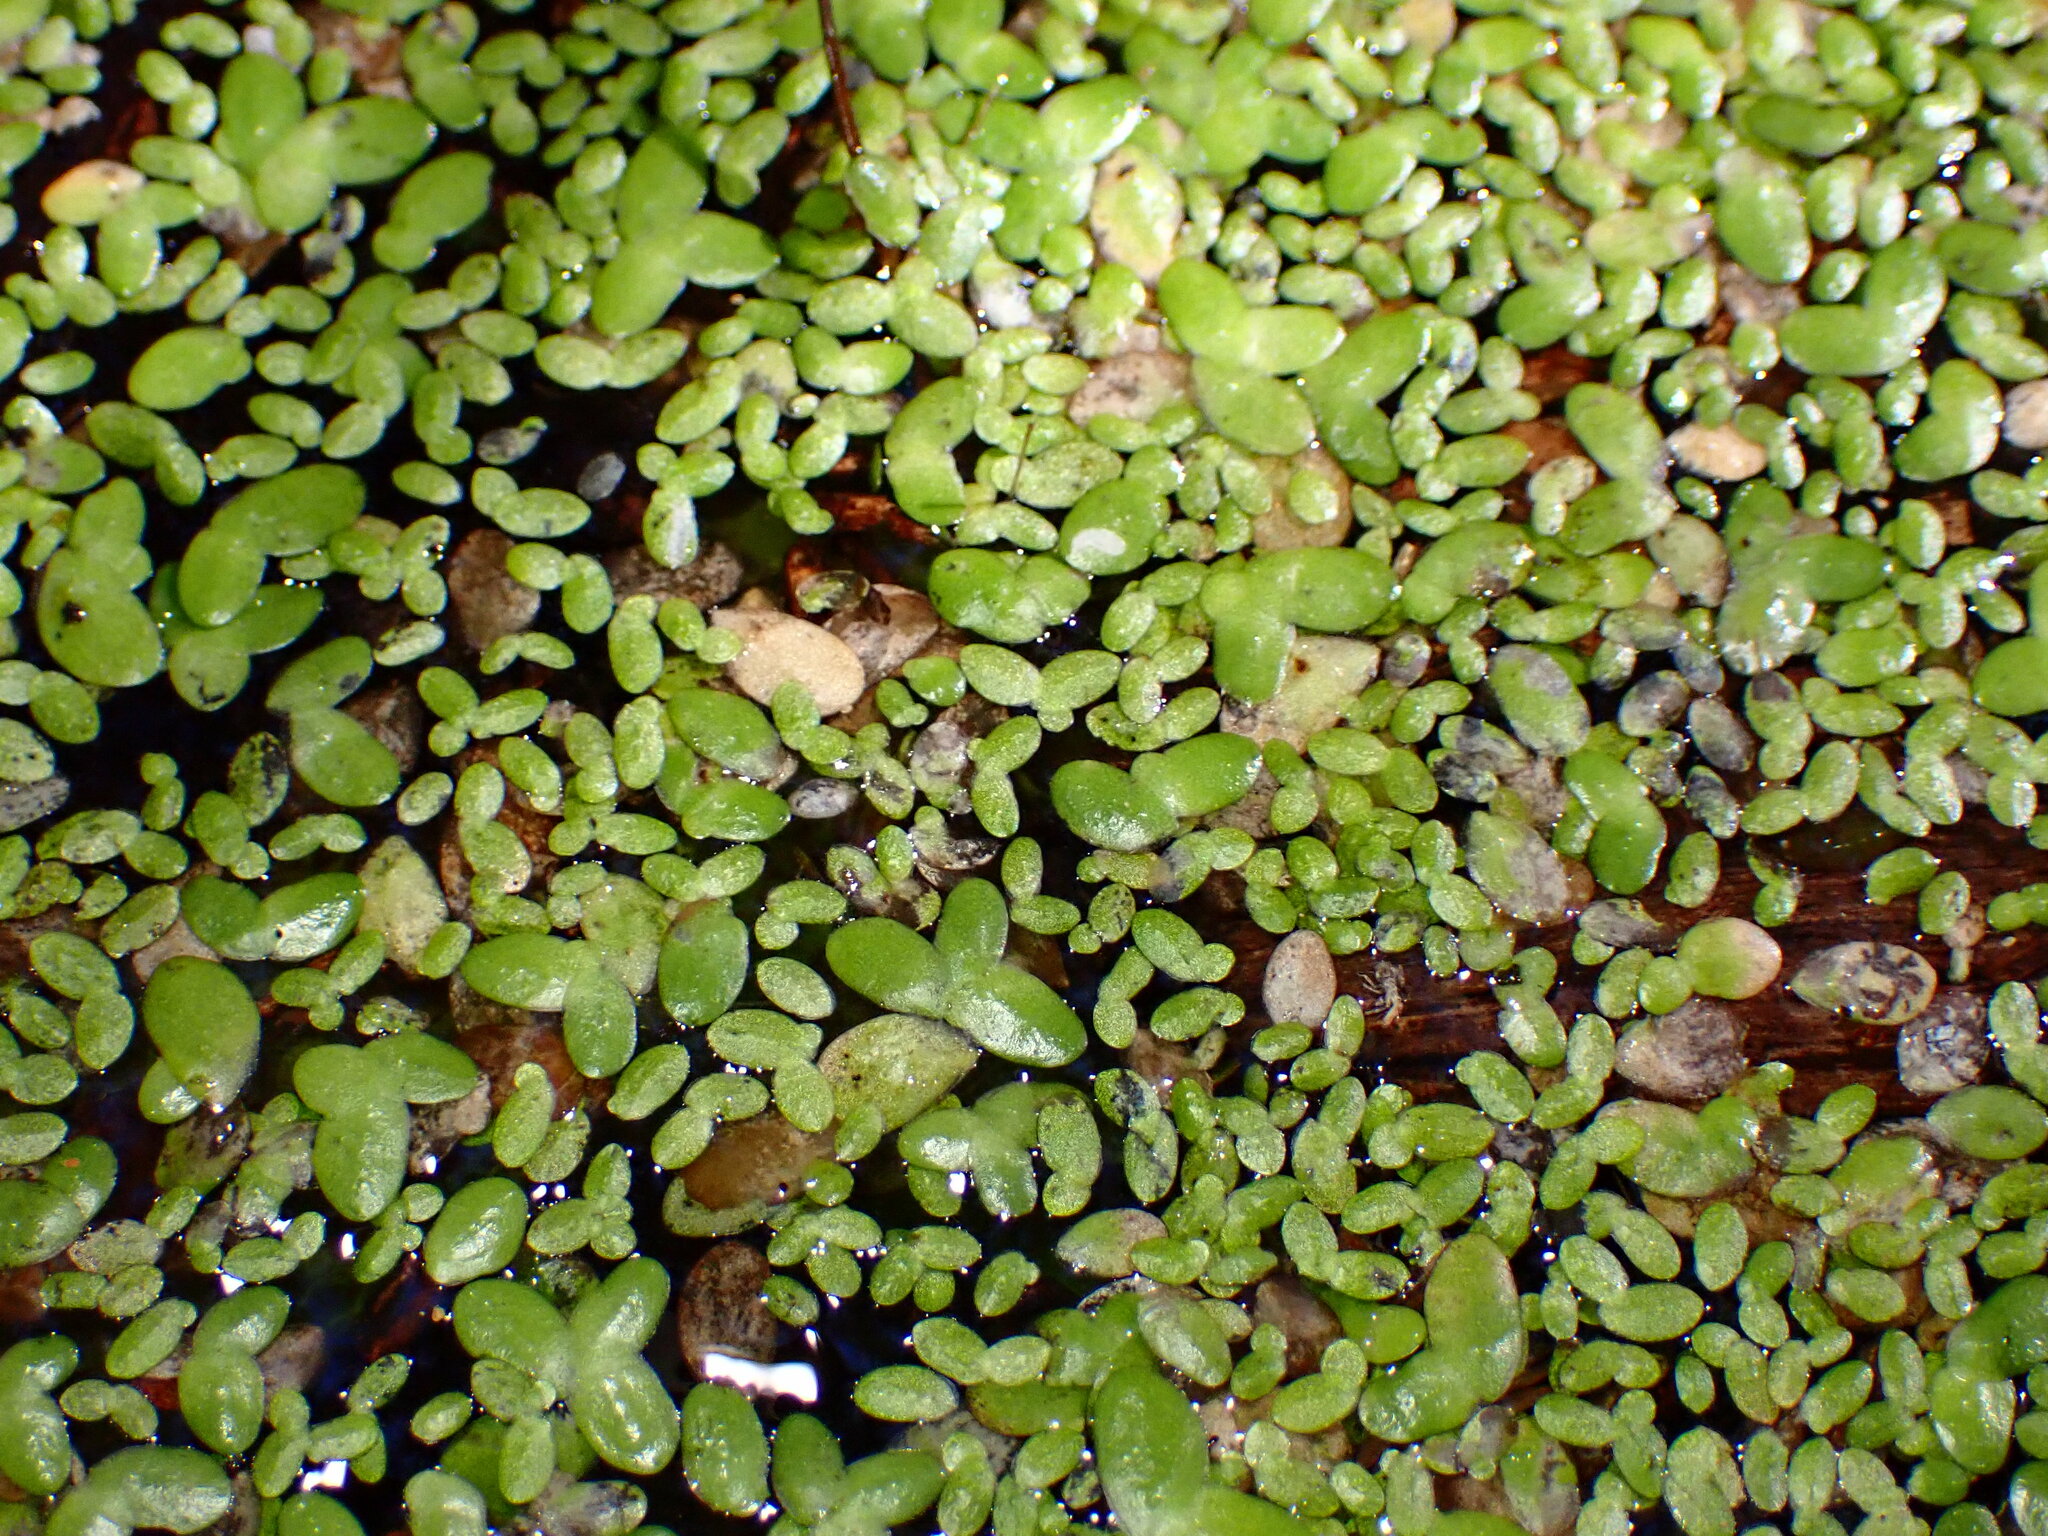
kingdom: Plantae
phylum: Tracheophyta
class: Liliopsida
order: Alismatales
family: Araceae
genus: Lemna
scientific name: Lemna minor
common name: Common duckweed
